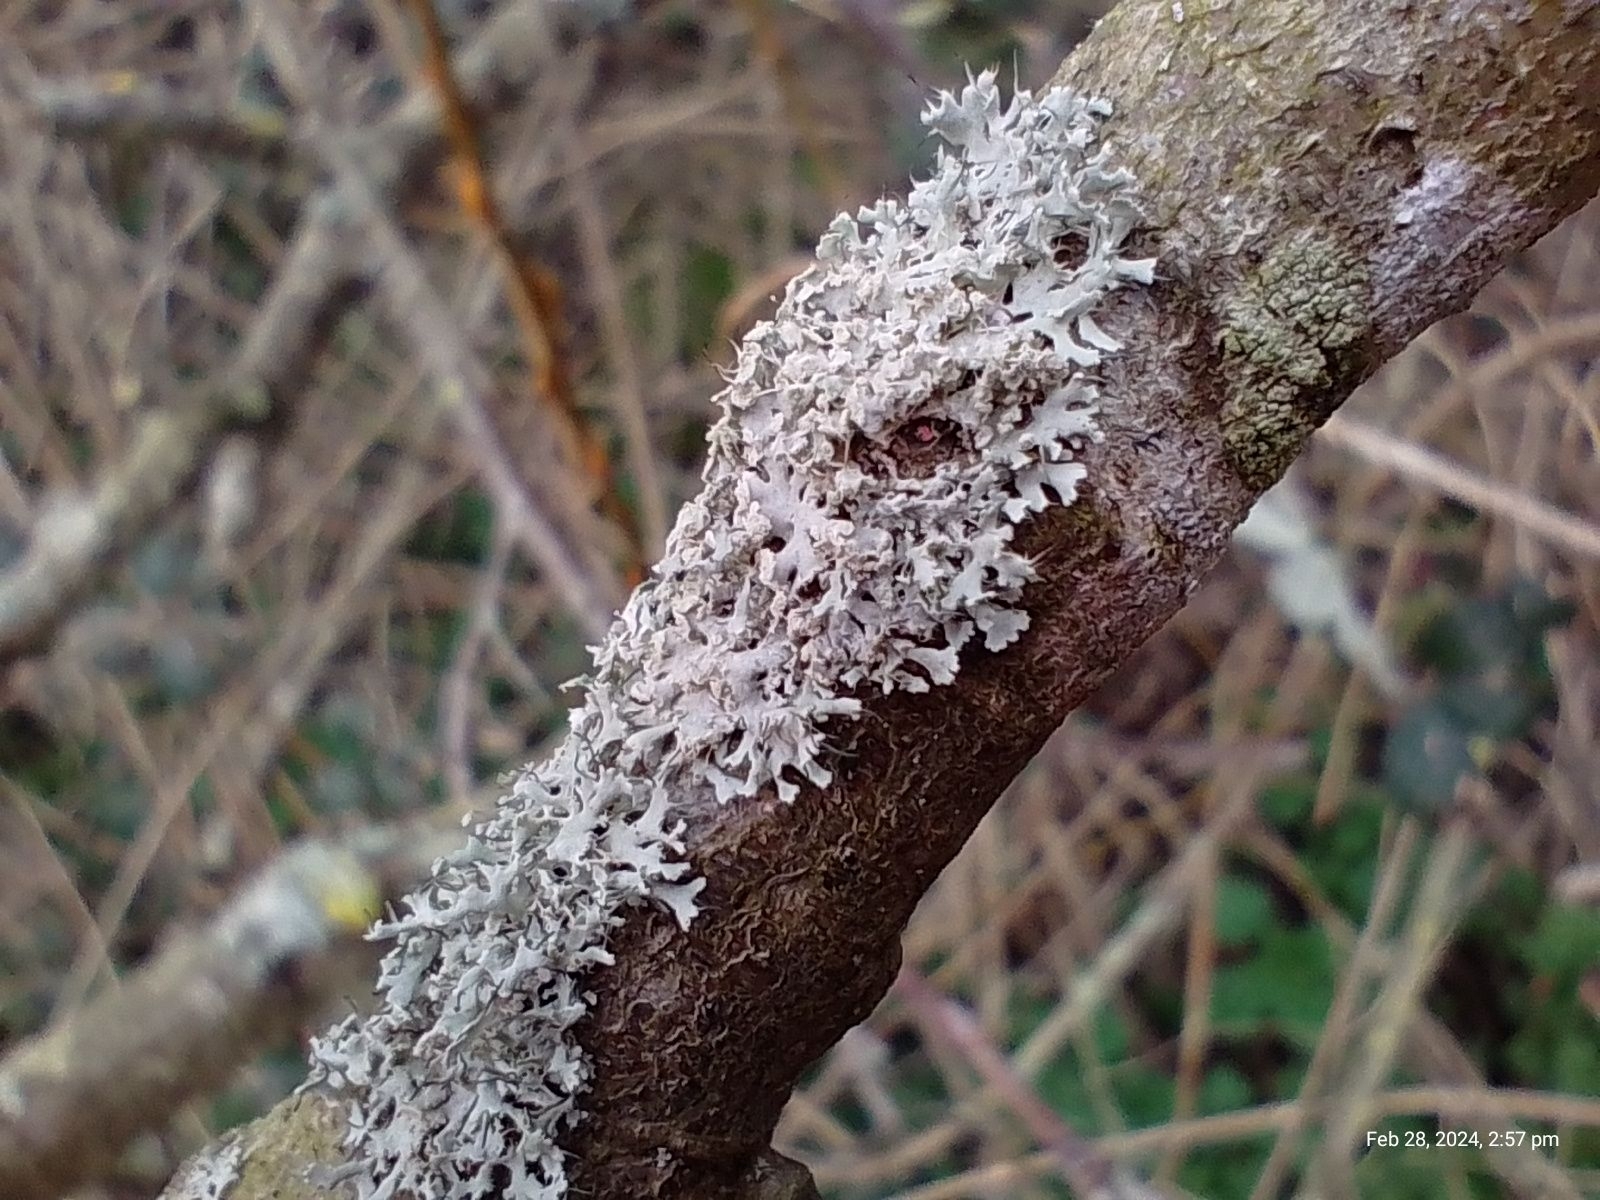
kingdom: Fungi
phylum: Ascomycota
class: Lecanoromycetes
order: Caliciales
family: Physciaceae
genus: Physcia
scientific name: Physcia tenella
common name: Fringed rosette lichen
